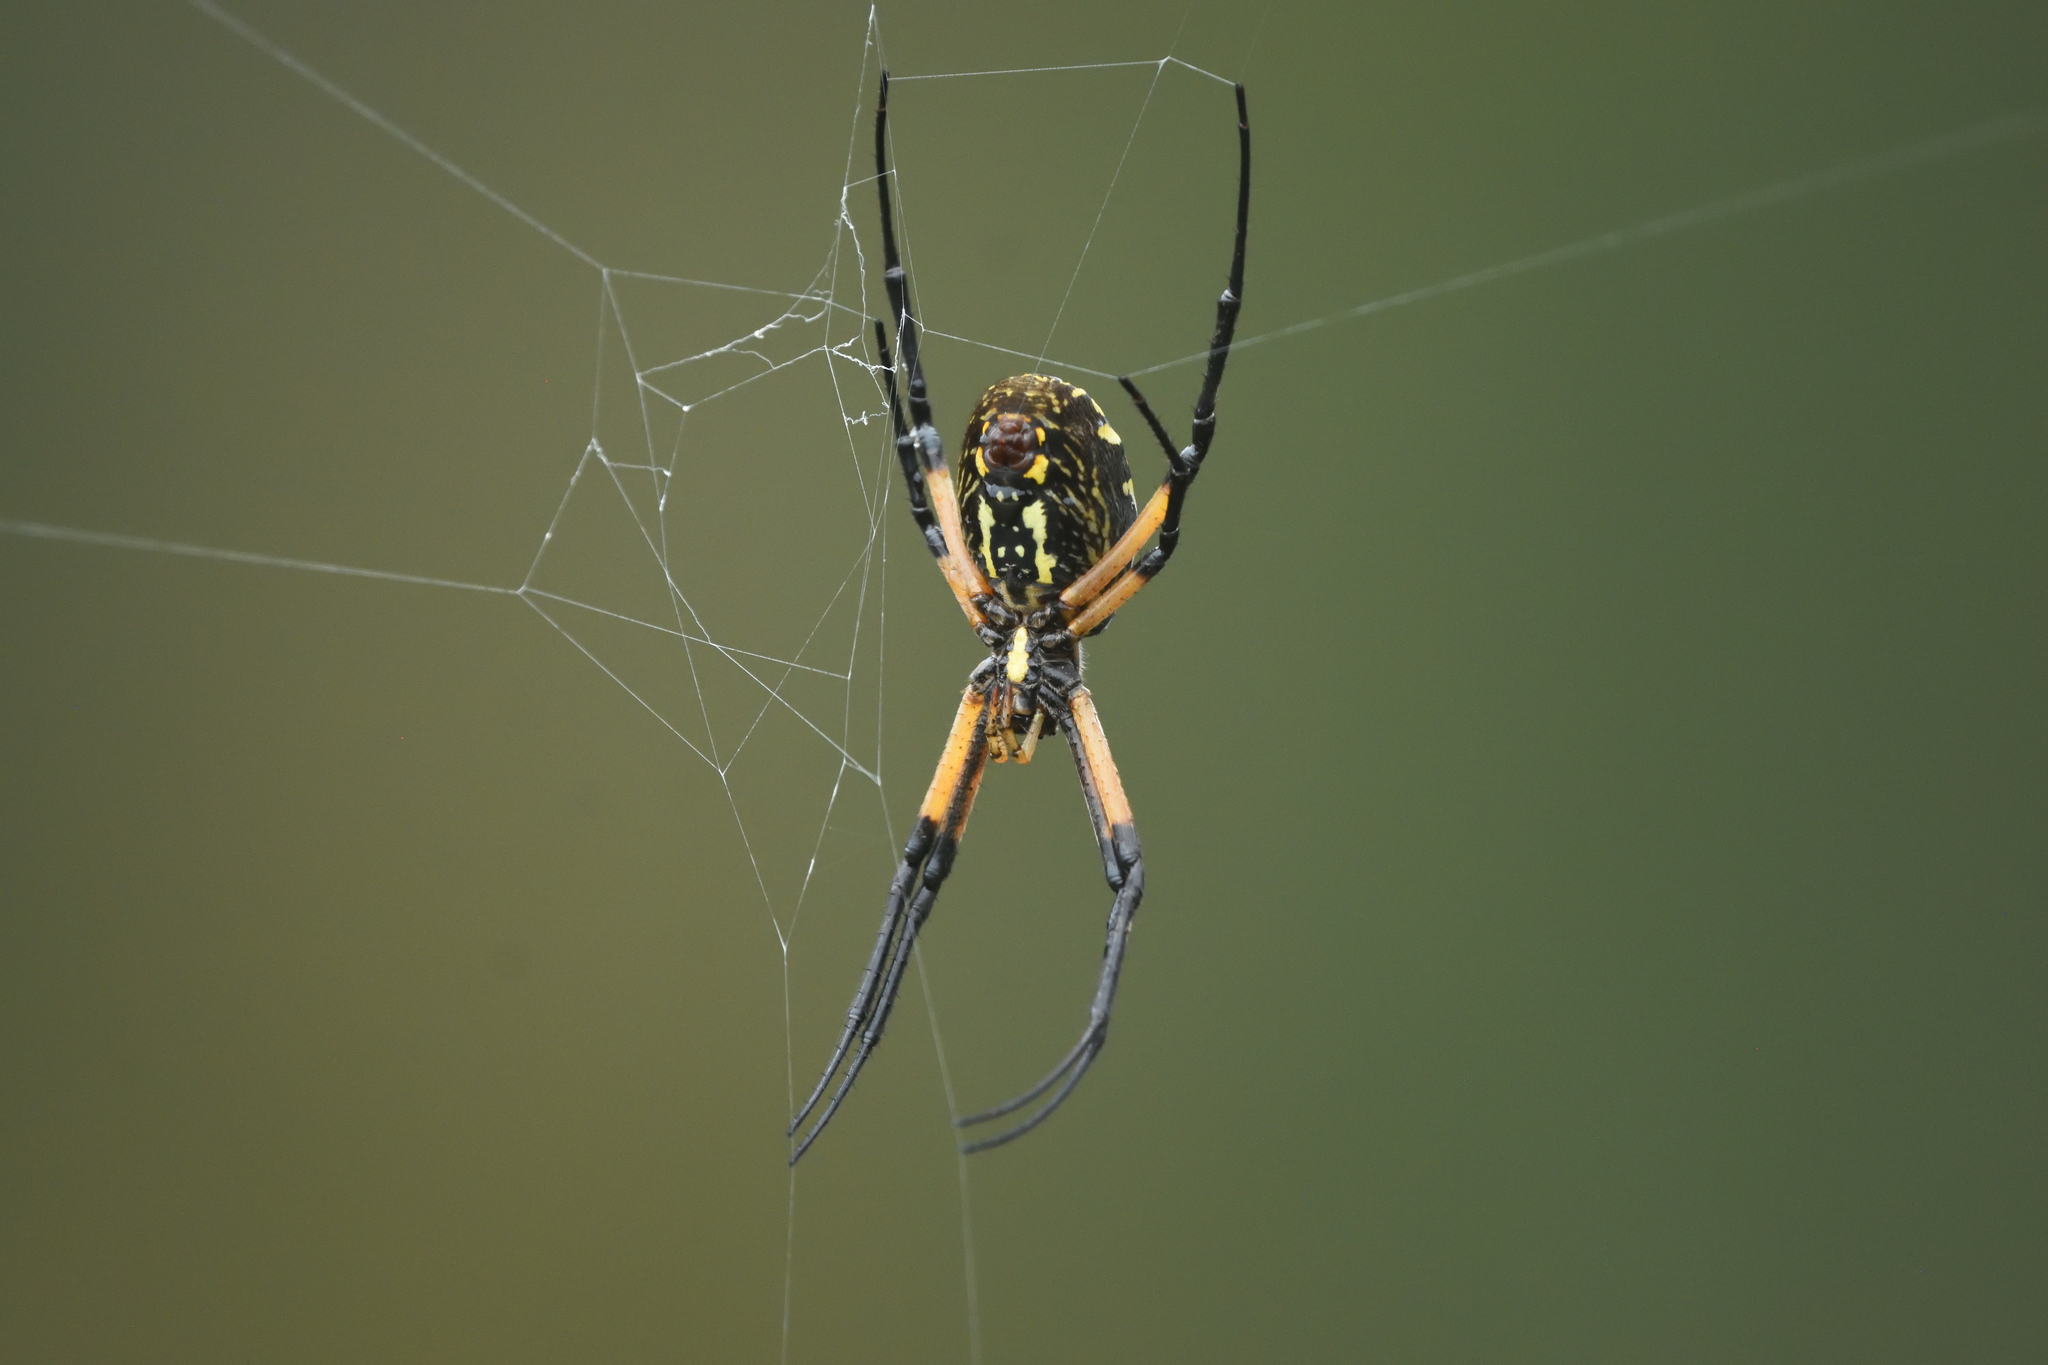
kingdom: Animalia
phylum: Arthropoda
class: Arachnida
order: Araneae
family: Araneidae
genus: Argiope
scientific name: Argiope aurantia
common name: Orb weavers
